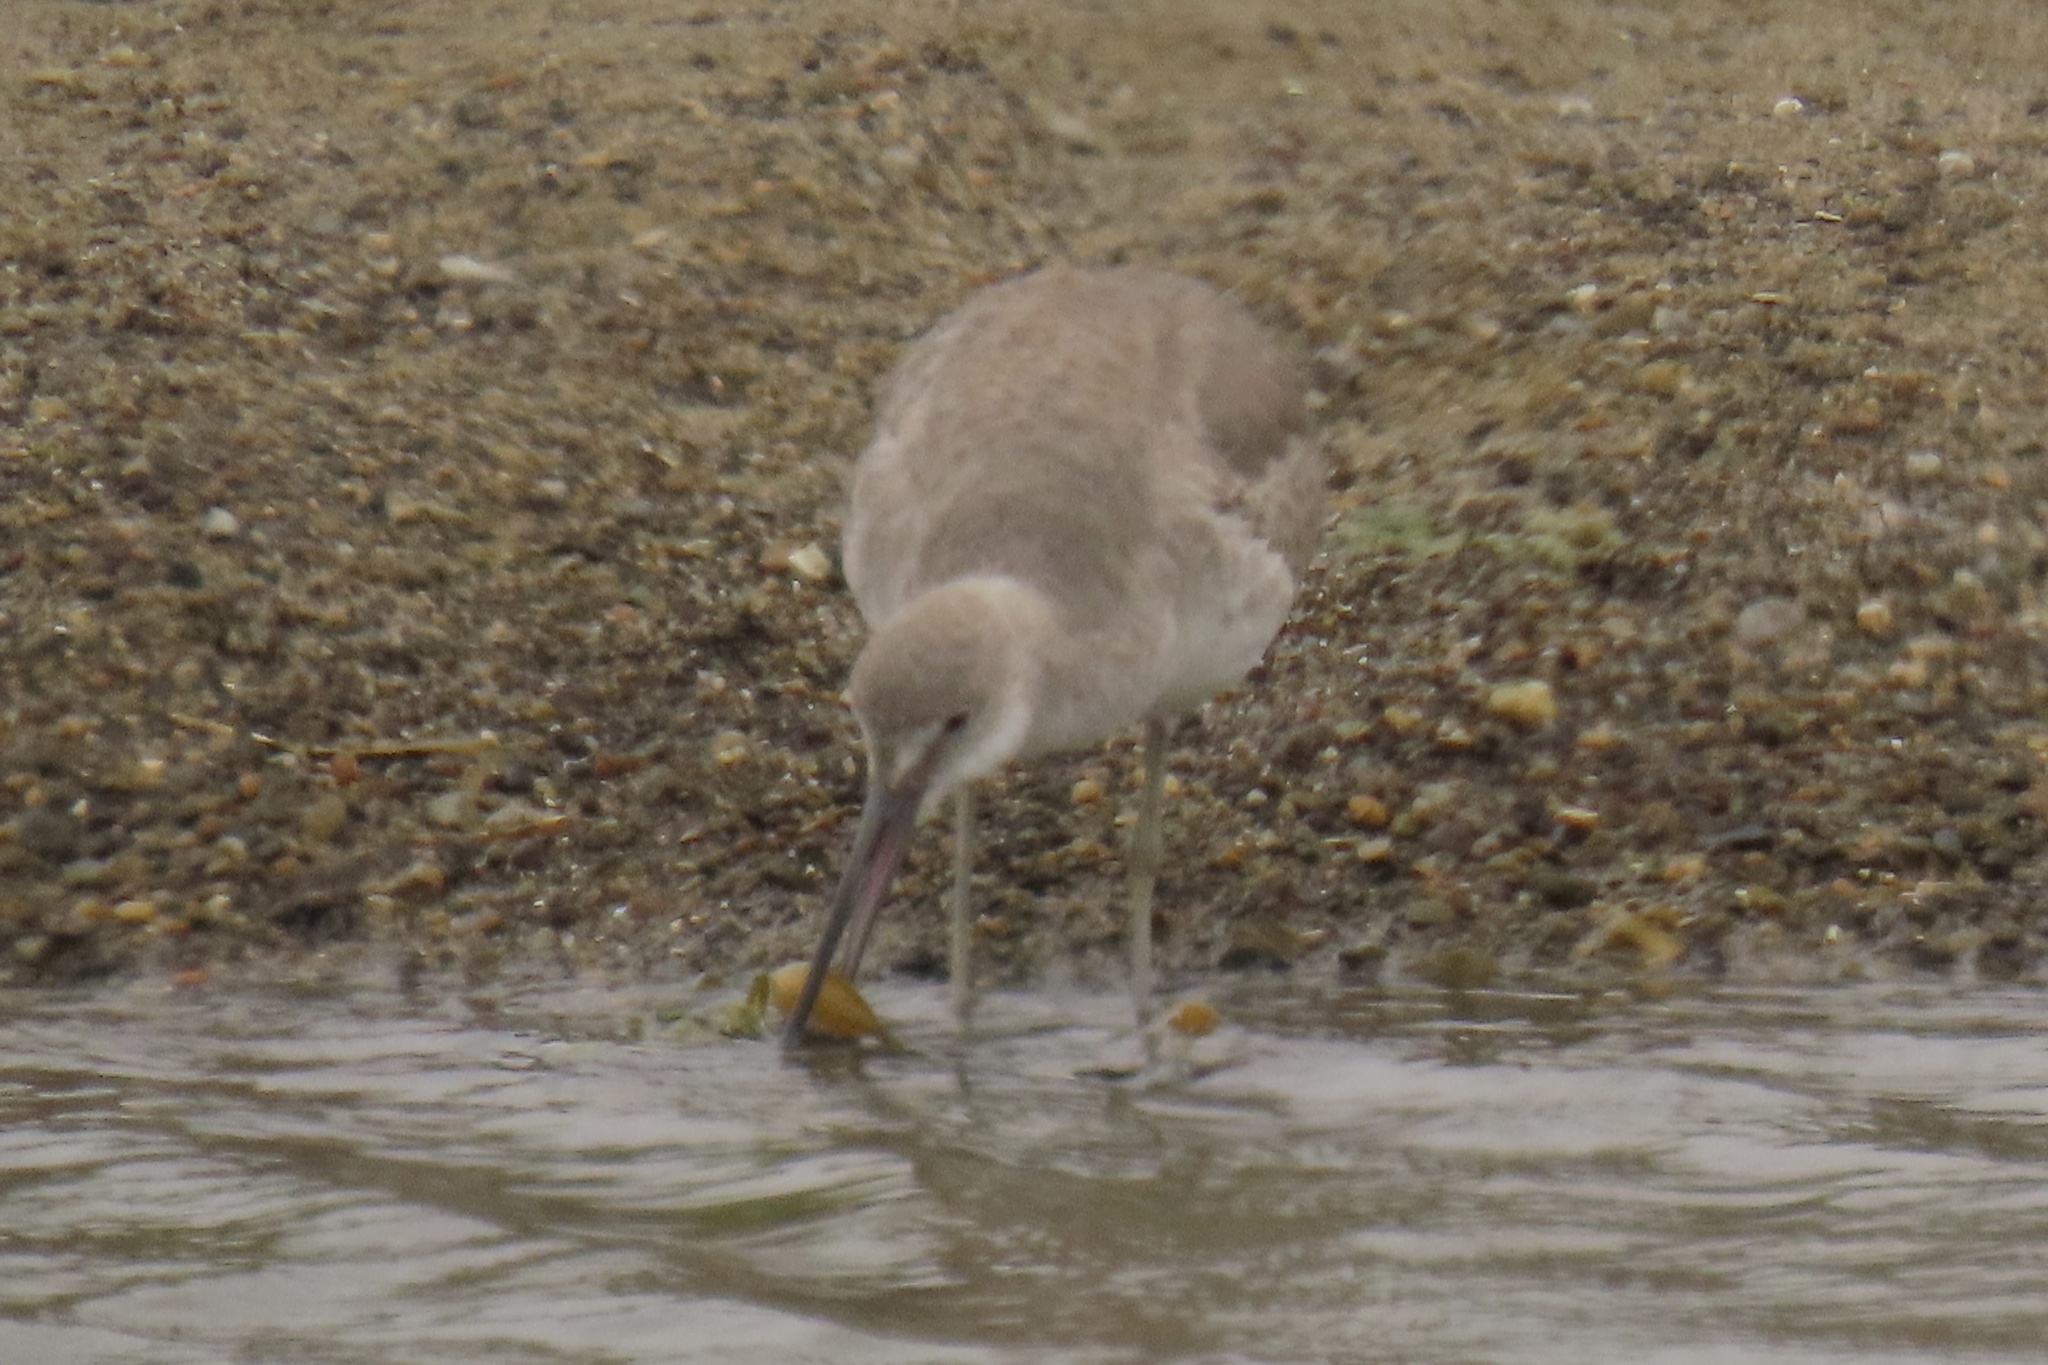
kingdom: Animalia
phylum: Chordata
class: Aves
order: Charadriiformes
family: Scolopacidae
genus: Tringa
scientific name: Tringa semipalmata
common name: Willet
